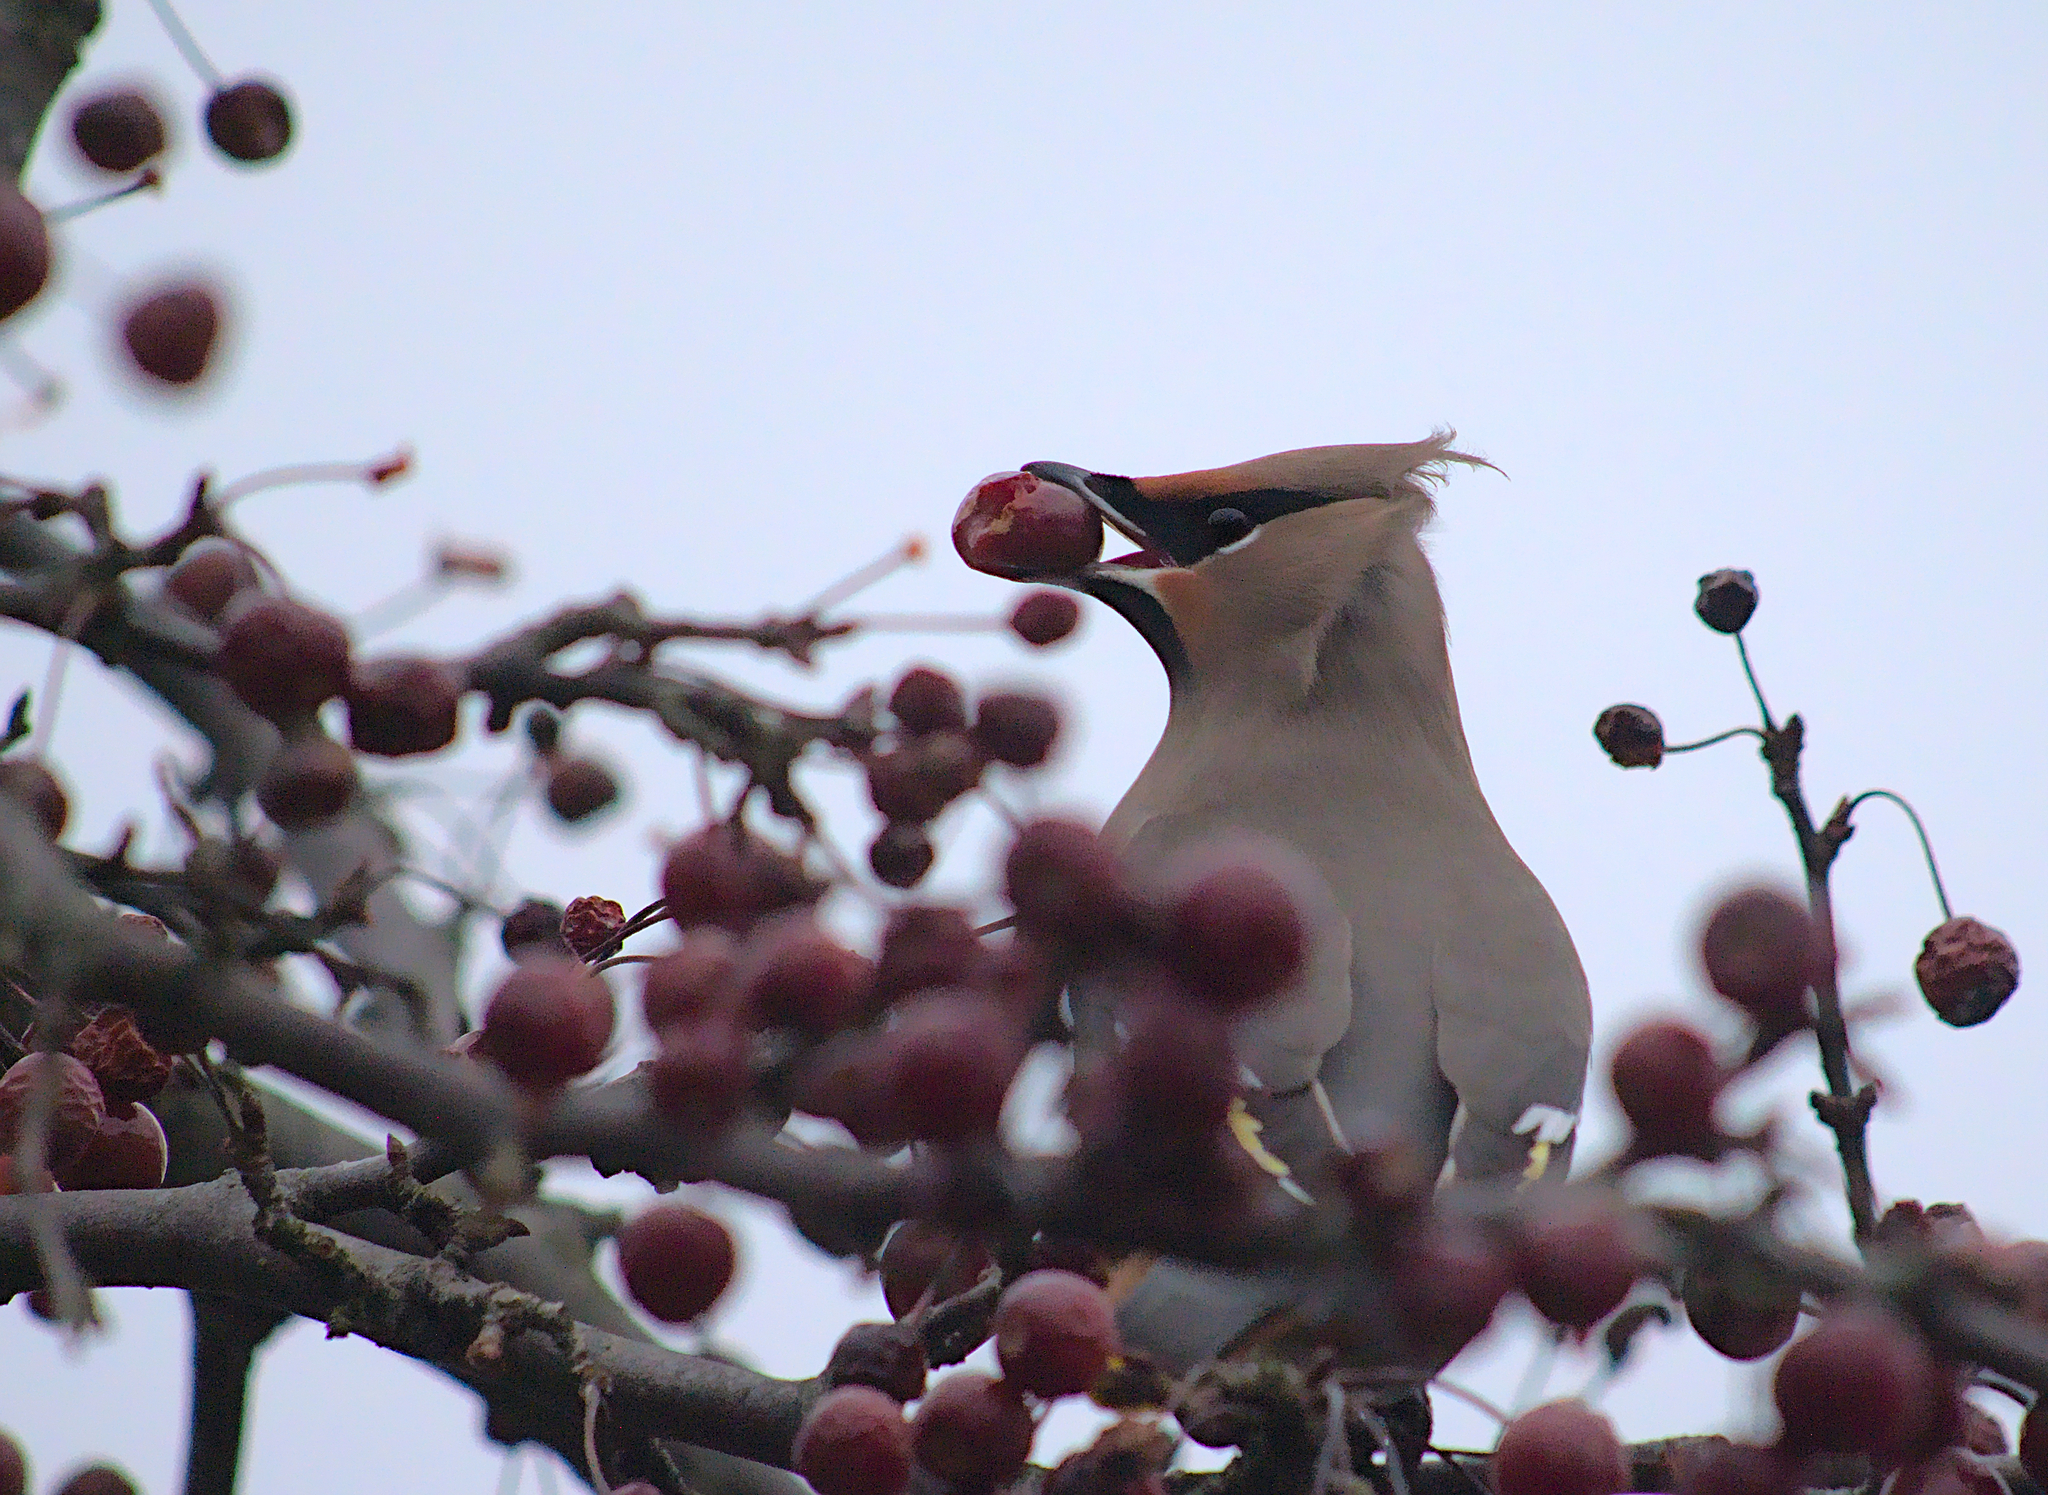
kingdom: Animalia
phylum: Chordata
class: Aves
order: Passeriformes
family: Bombycillidae
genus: Bombycilla
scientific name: Bombycilla garrulus
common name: Bohemian waxwing
